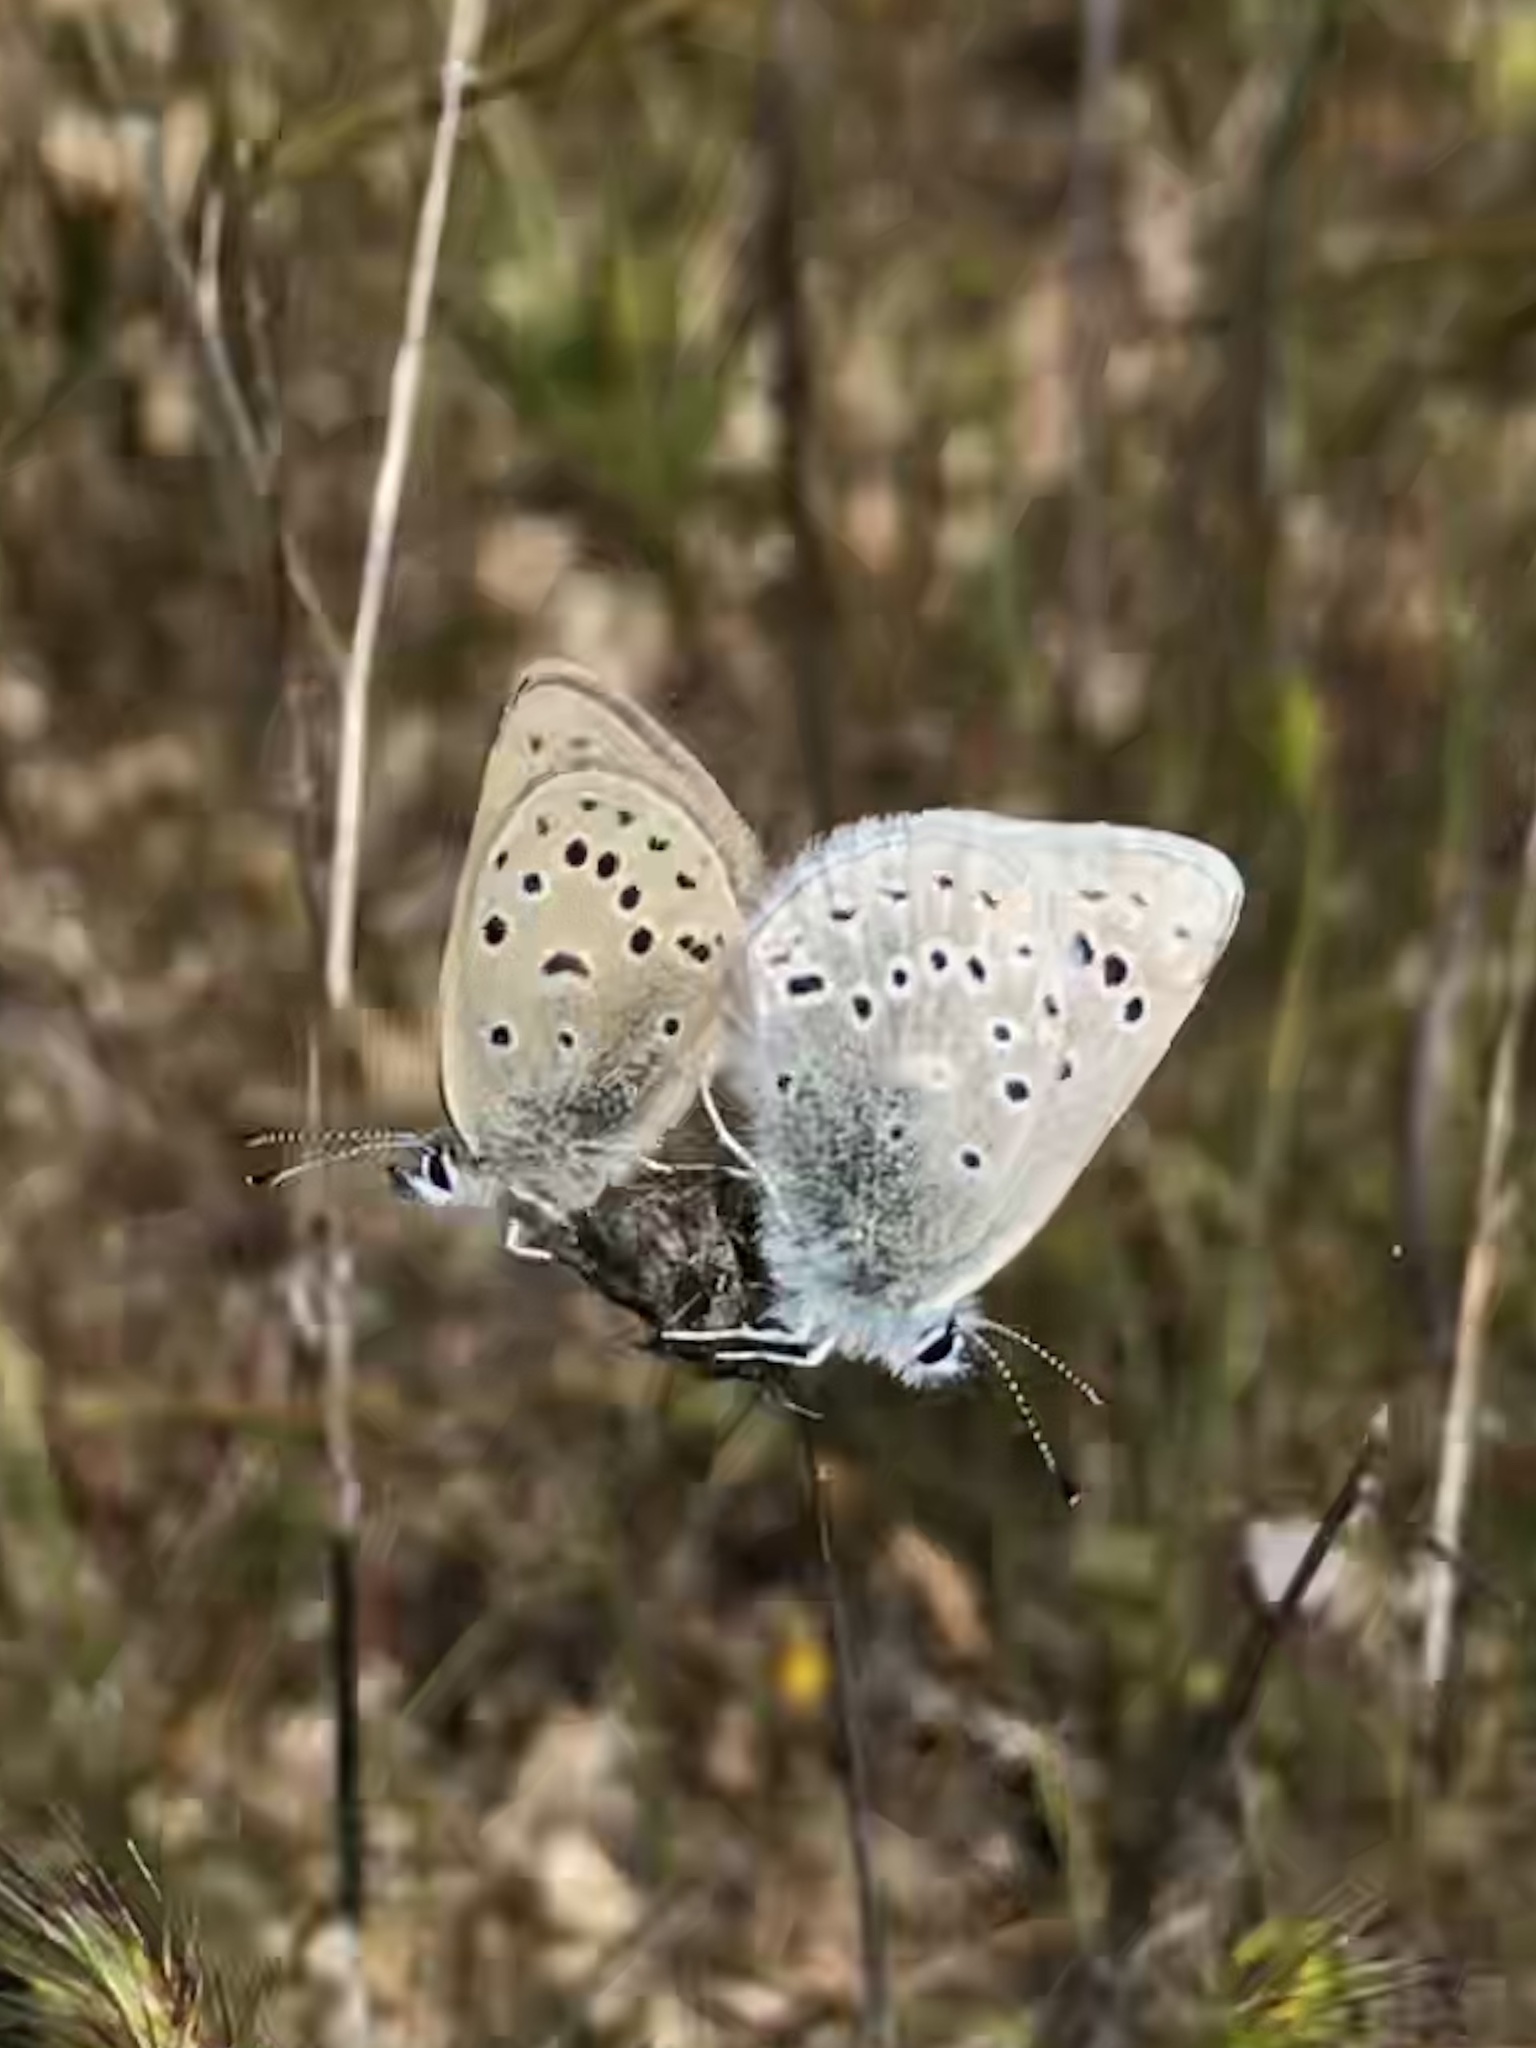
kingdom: Animalia
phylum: Arthropoda
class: Insecta
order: Lepidoptera
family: Lycaenidae
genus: Icaricia
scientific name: Icaricia icarioides
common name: Boisduval's blue
